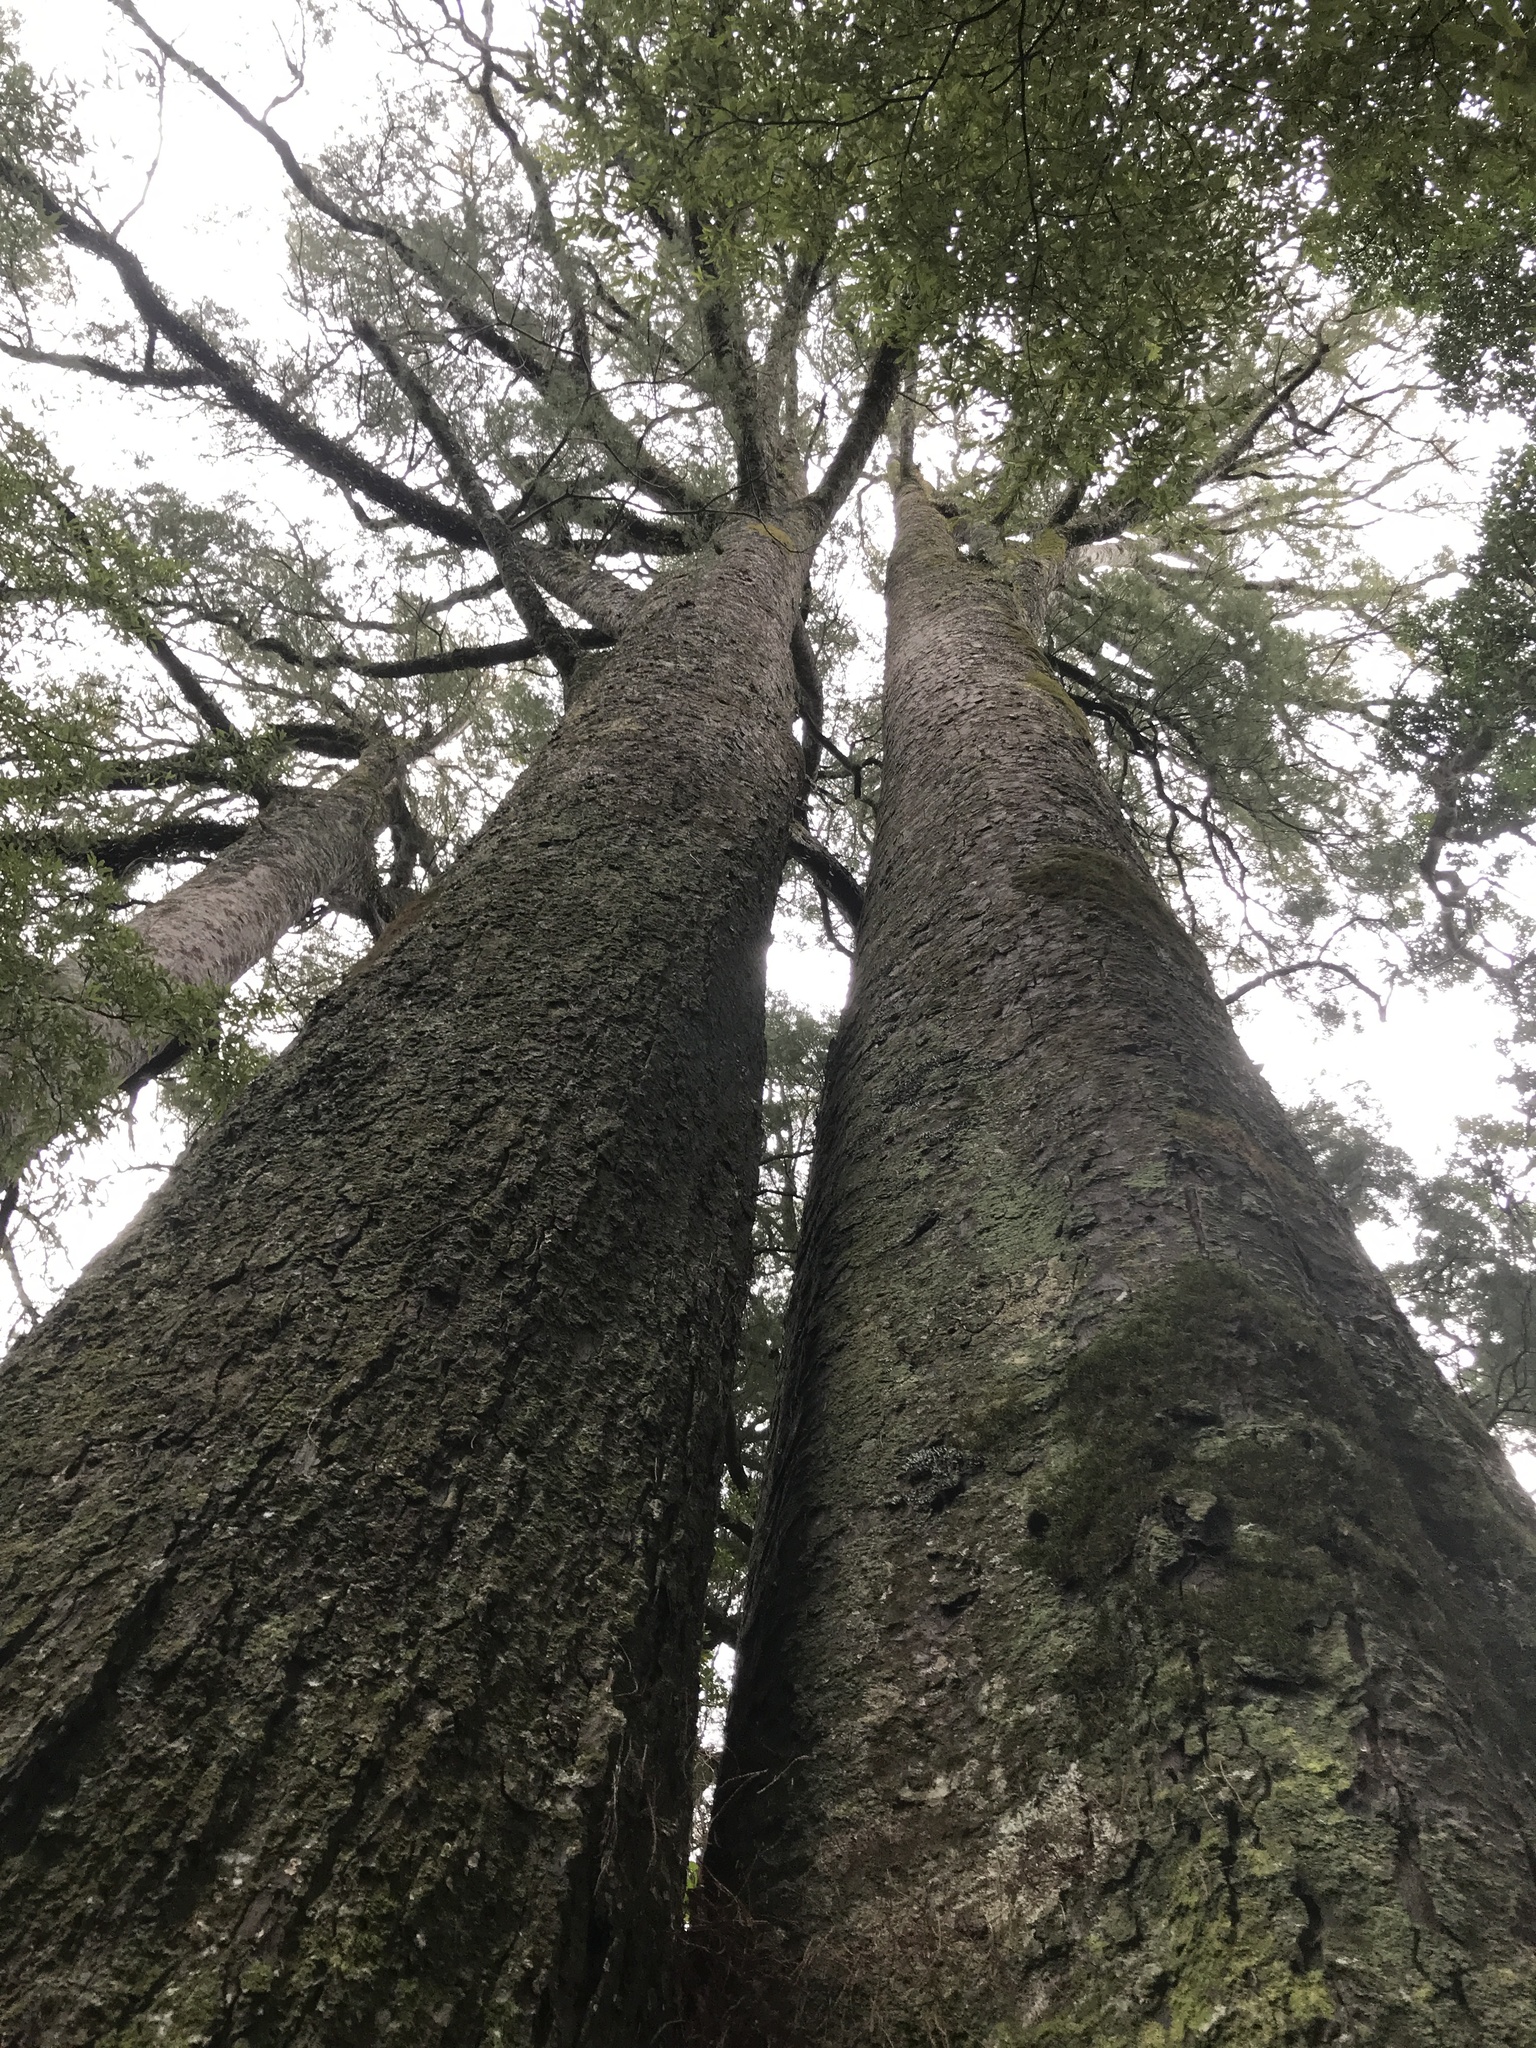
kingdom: Plantae
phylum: Tracheophyta
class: Pinopsida
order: Pinales
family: Podocarpaceae
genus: Dacrycarpus
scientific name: Dacrycarpus dacrydioides
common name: White pine
